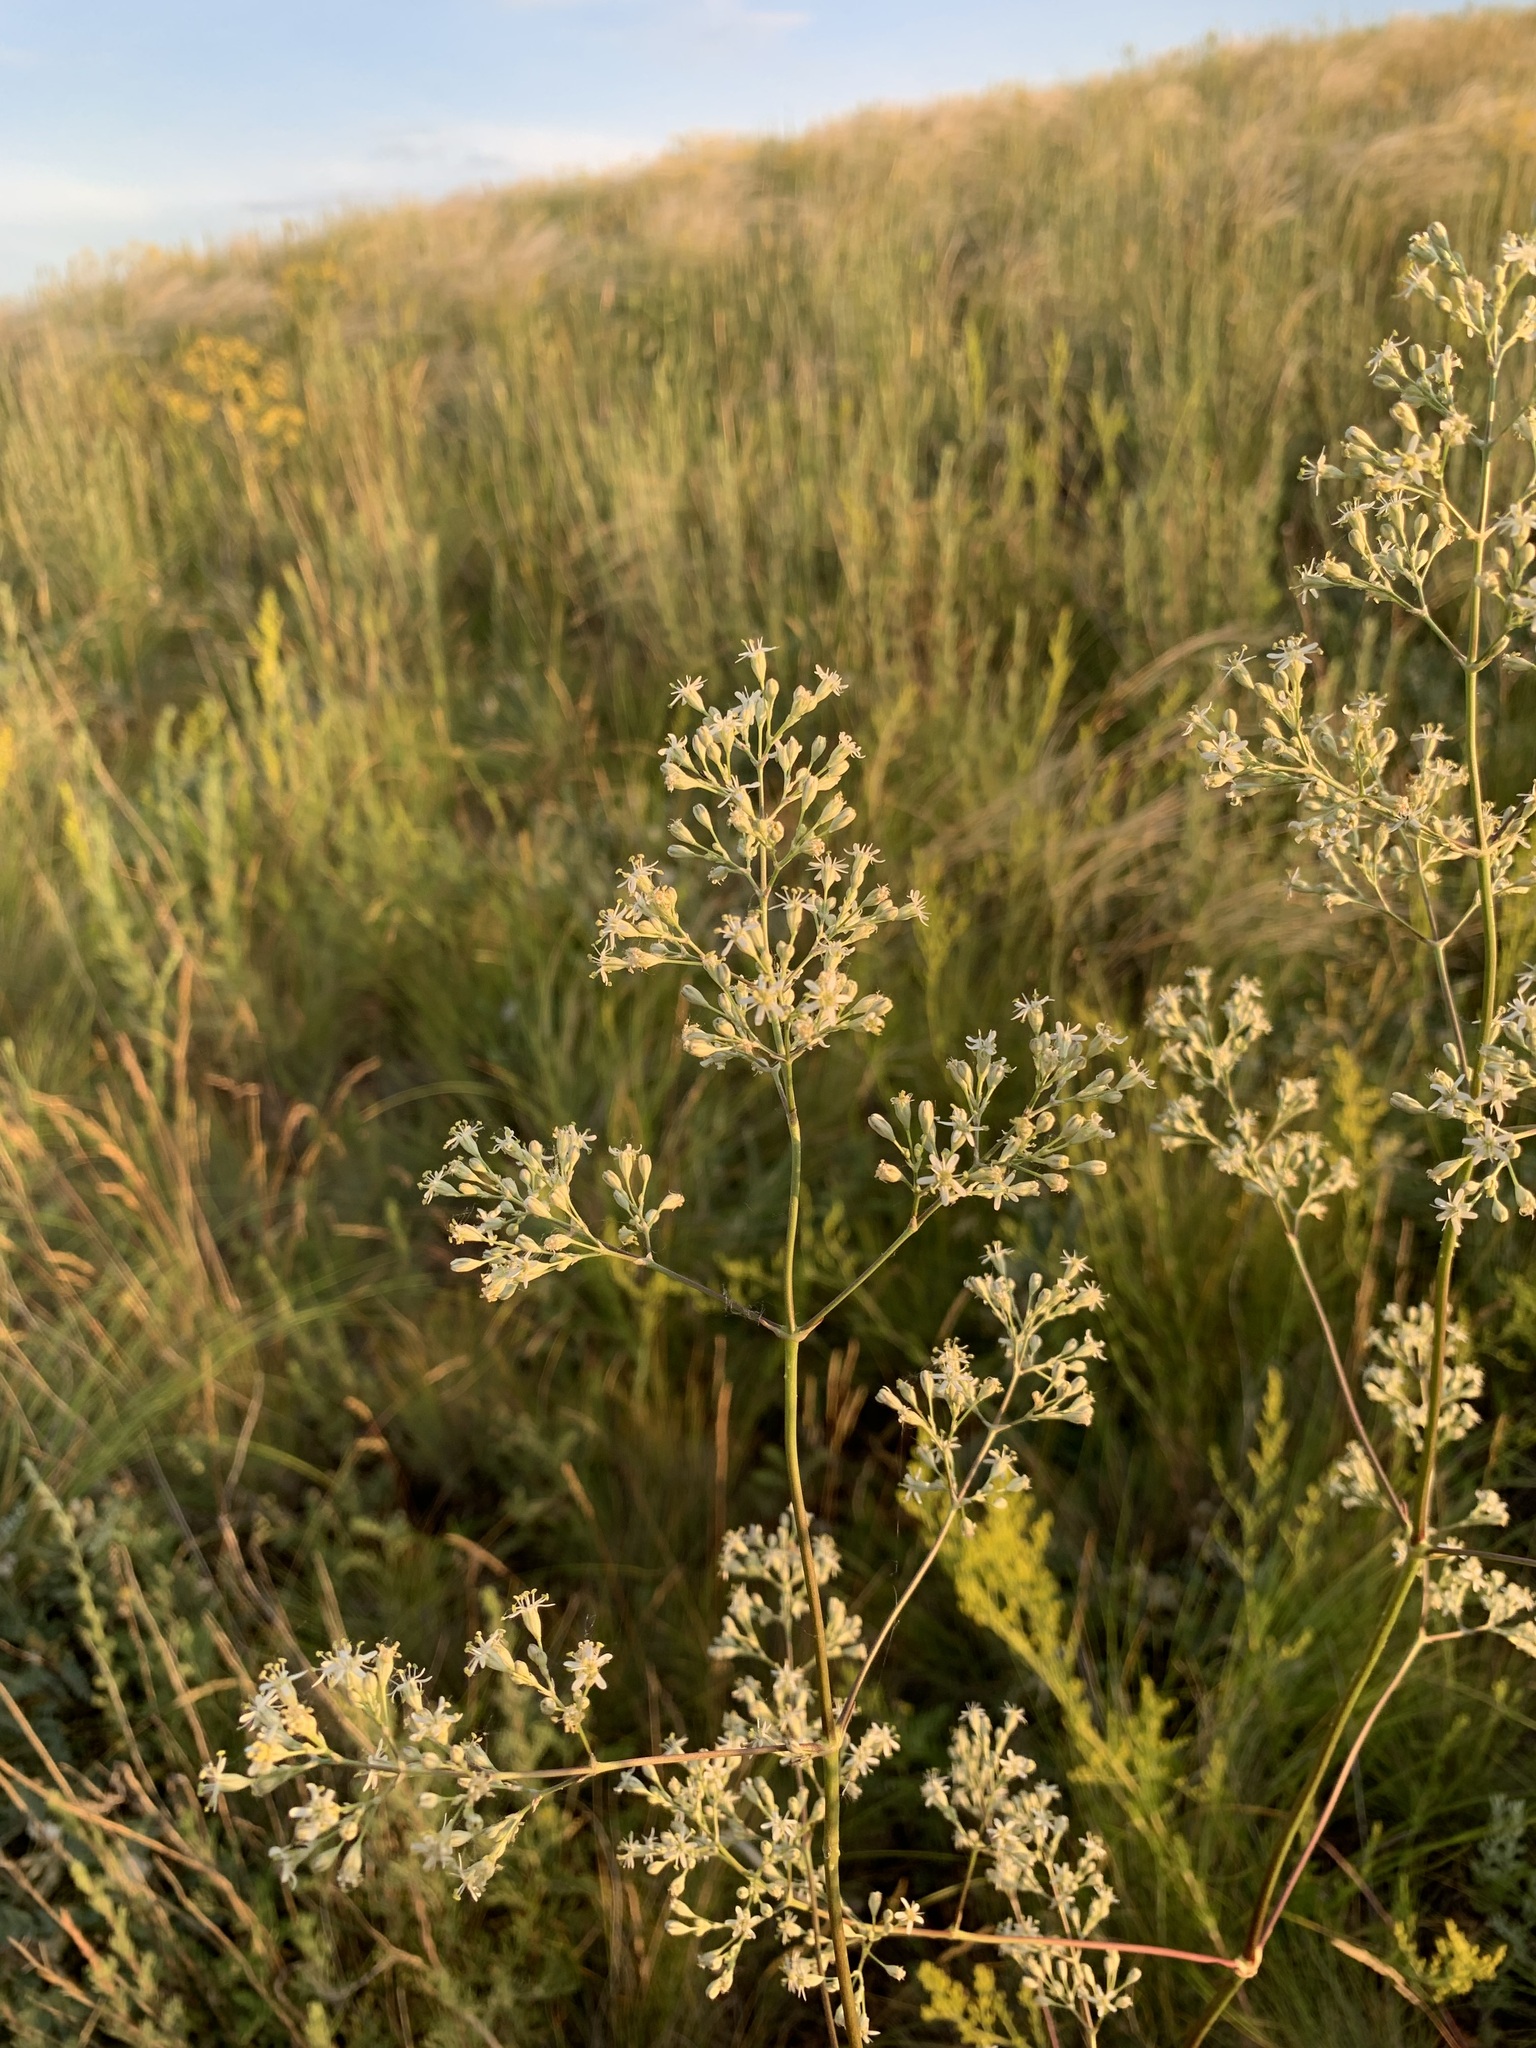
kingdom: Plantae
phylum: Tracheophyta
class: Magnoliopsida
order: Caryophyllales
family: Caryophyllaceae
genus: Silene
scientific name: Silene wolgensis
